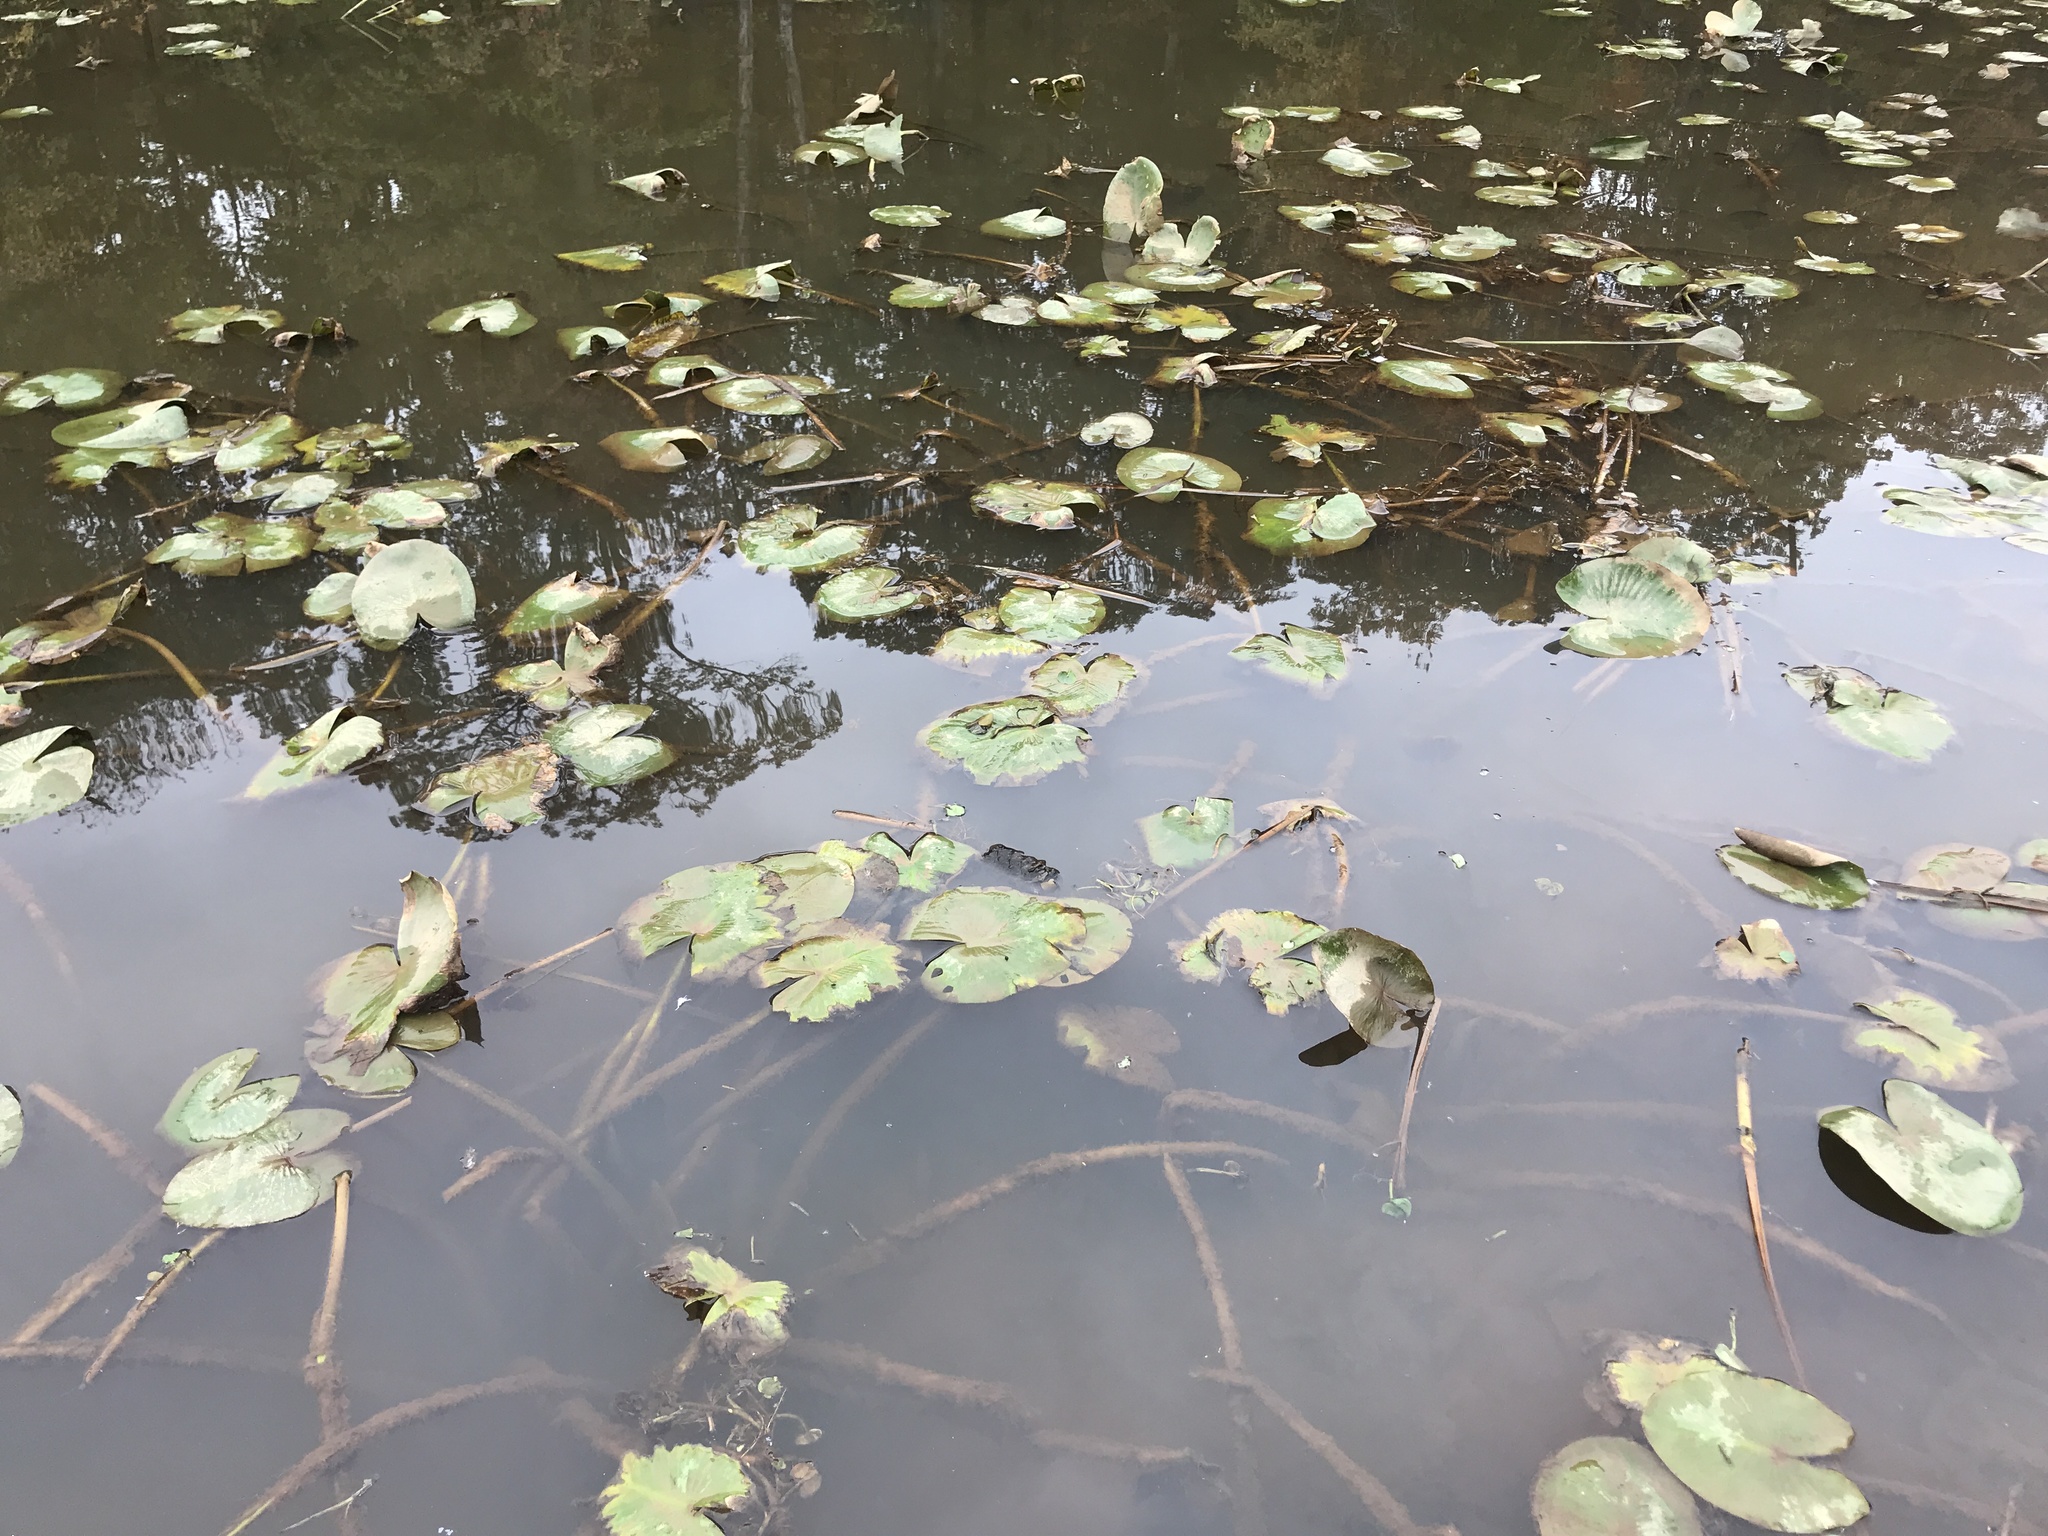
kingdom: Plantae
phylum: Tracheophyta
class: Magnoliopsida
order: Nymphaeales
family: Nymphaeaceae
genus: Nuphar
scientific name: Nuphar advena
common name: Spatter-dock
